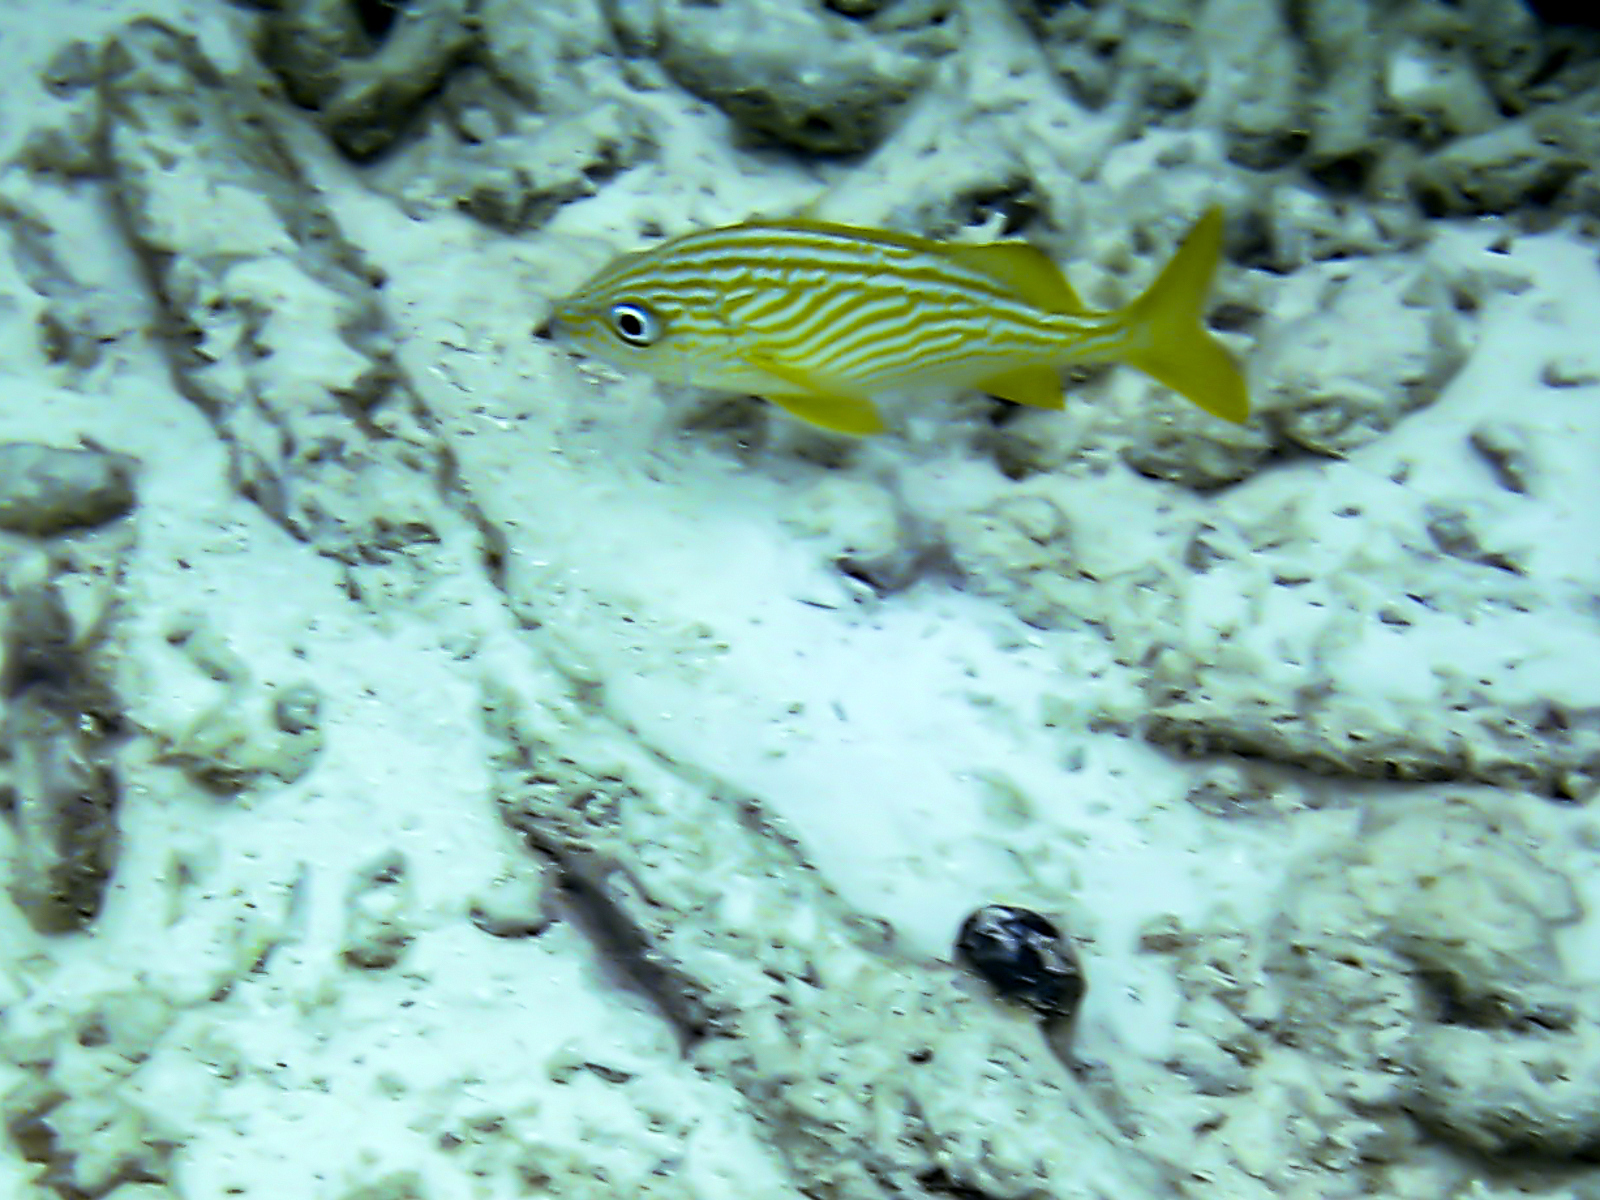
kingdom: Animalia
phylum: Chordata
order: Perciformes
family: Haemulidae
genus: Haemulon
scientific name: Haemulon flavolineatum
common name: French grunt
